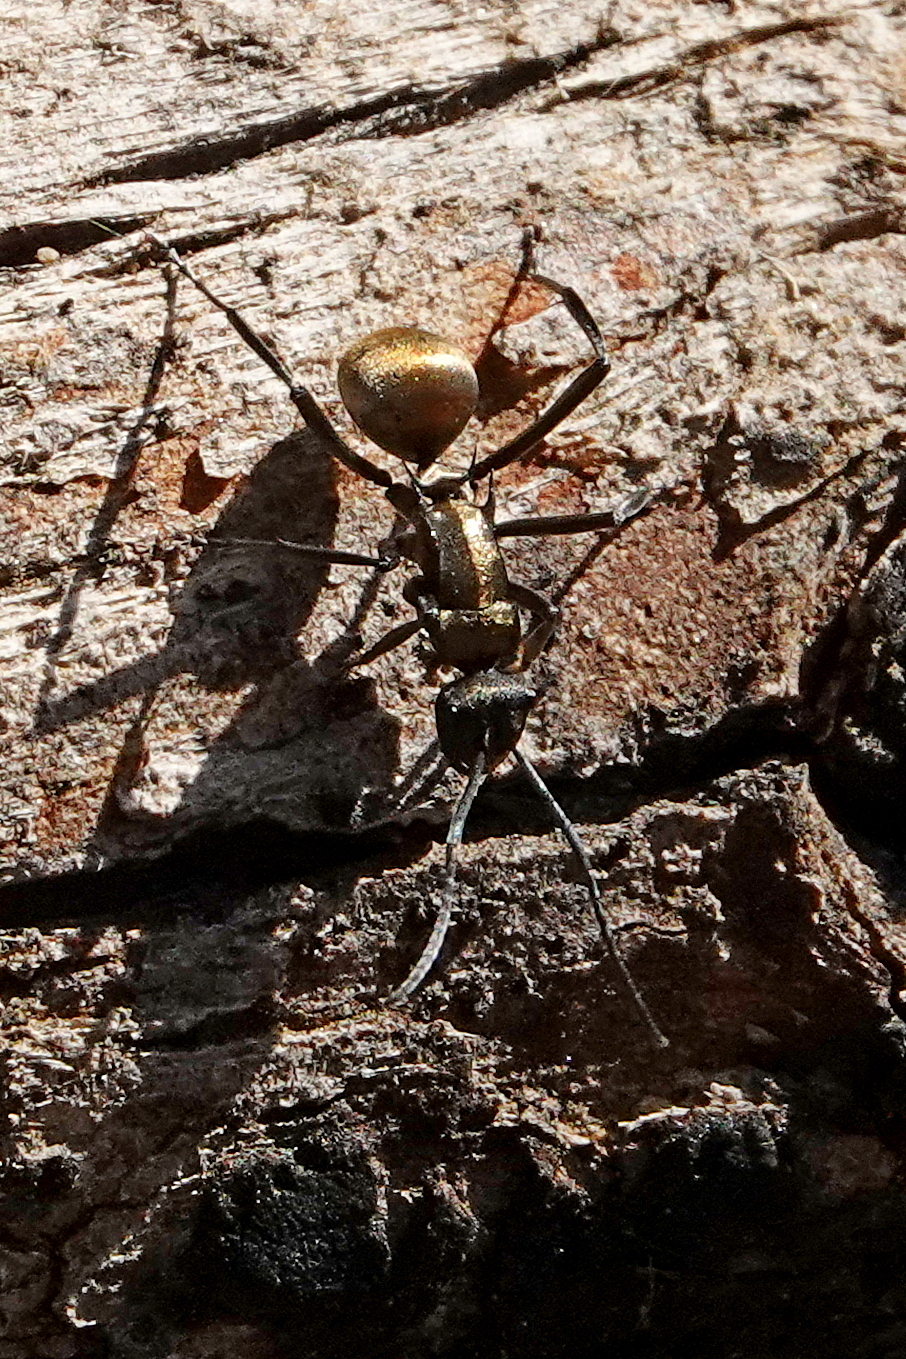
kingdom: Animalia
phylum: Arthropoda
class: Insecta
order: Hymenoptera
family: Formicidae
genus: Polyrhachis
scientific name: Polyrhachis ammon
